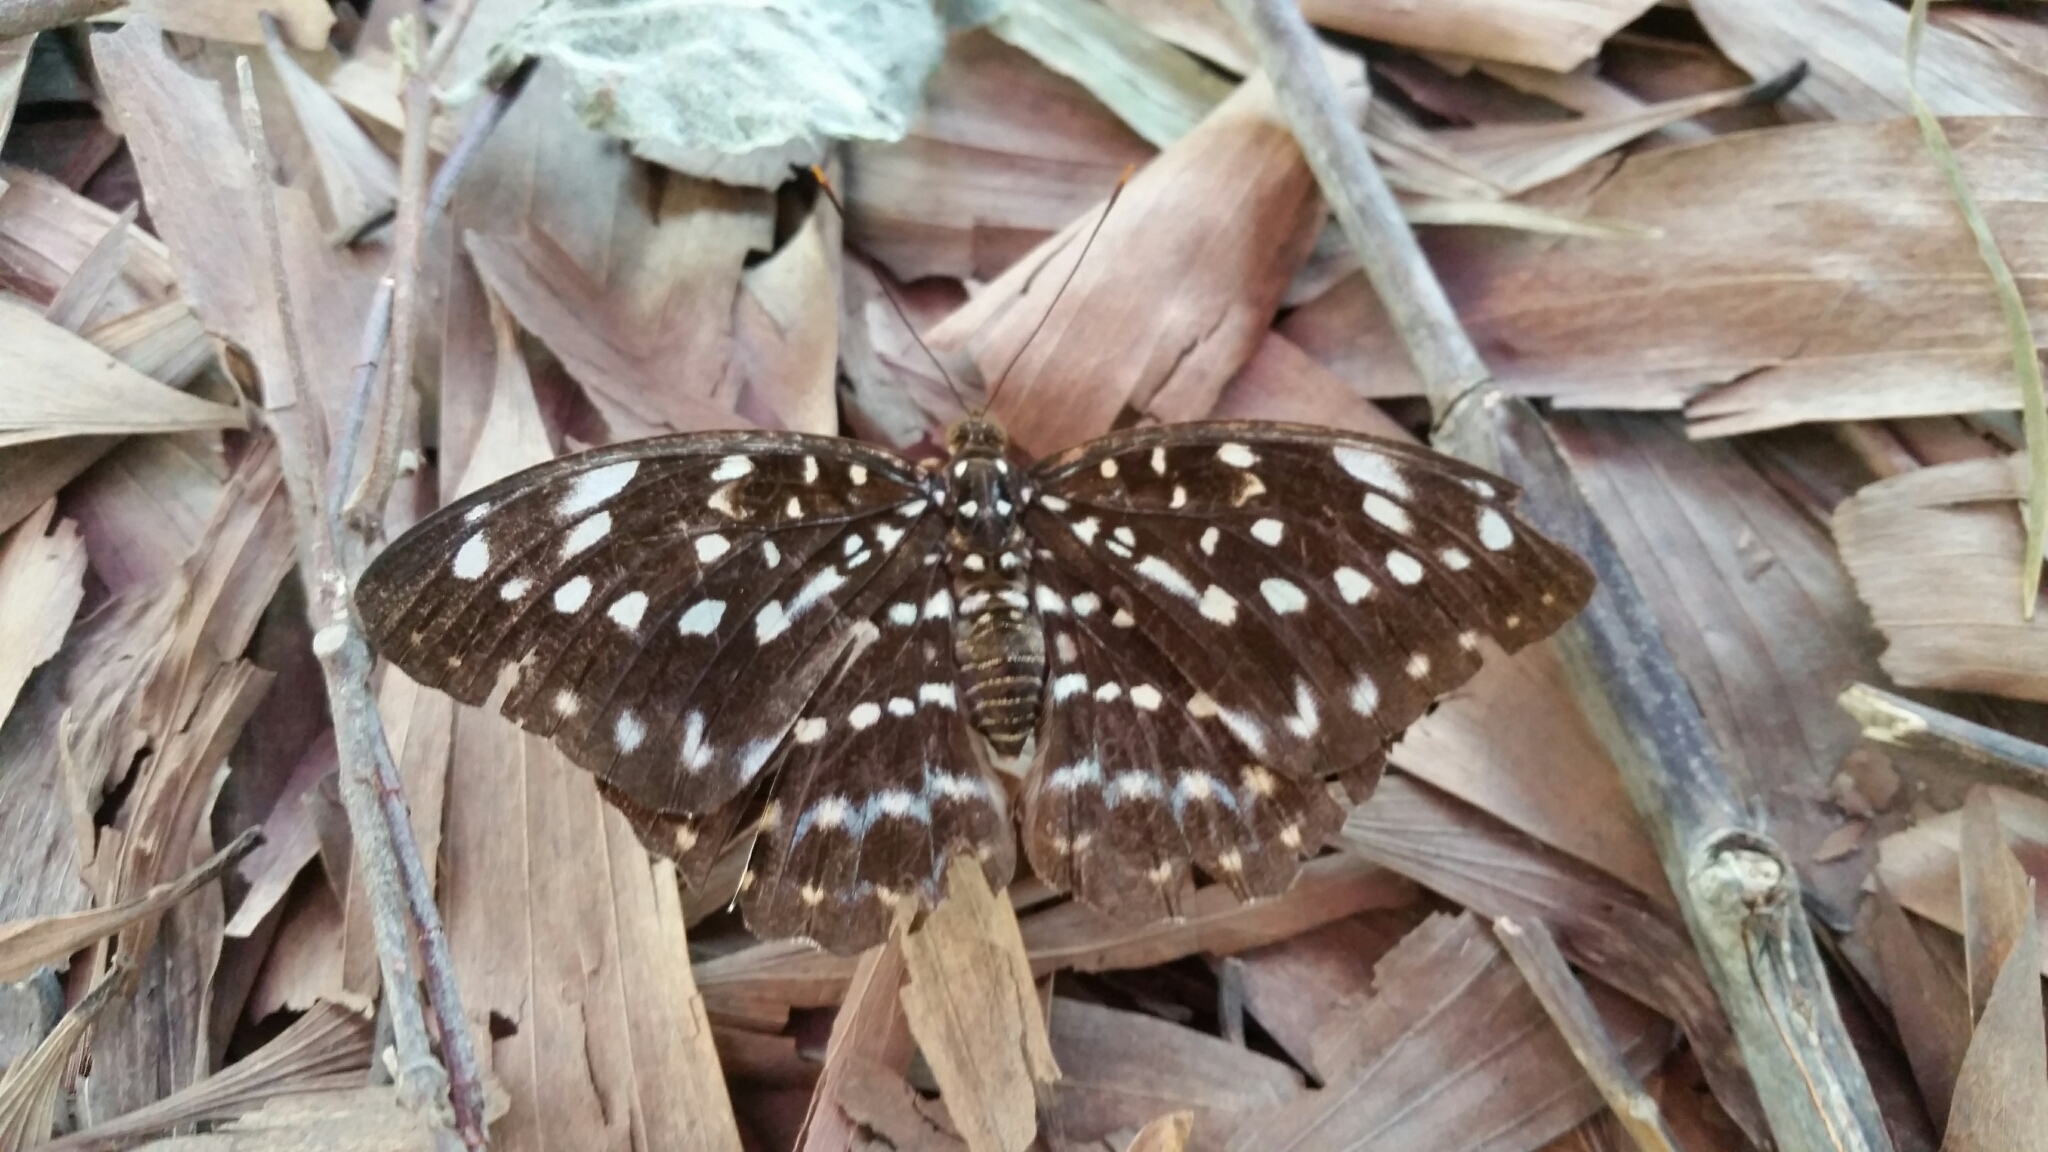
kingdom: Animalia
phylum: Arthropoda
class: Insecta
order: Lepidoptera
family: Nymphalidae
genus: Lexias
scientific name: Lexias pardalis
